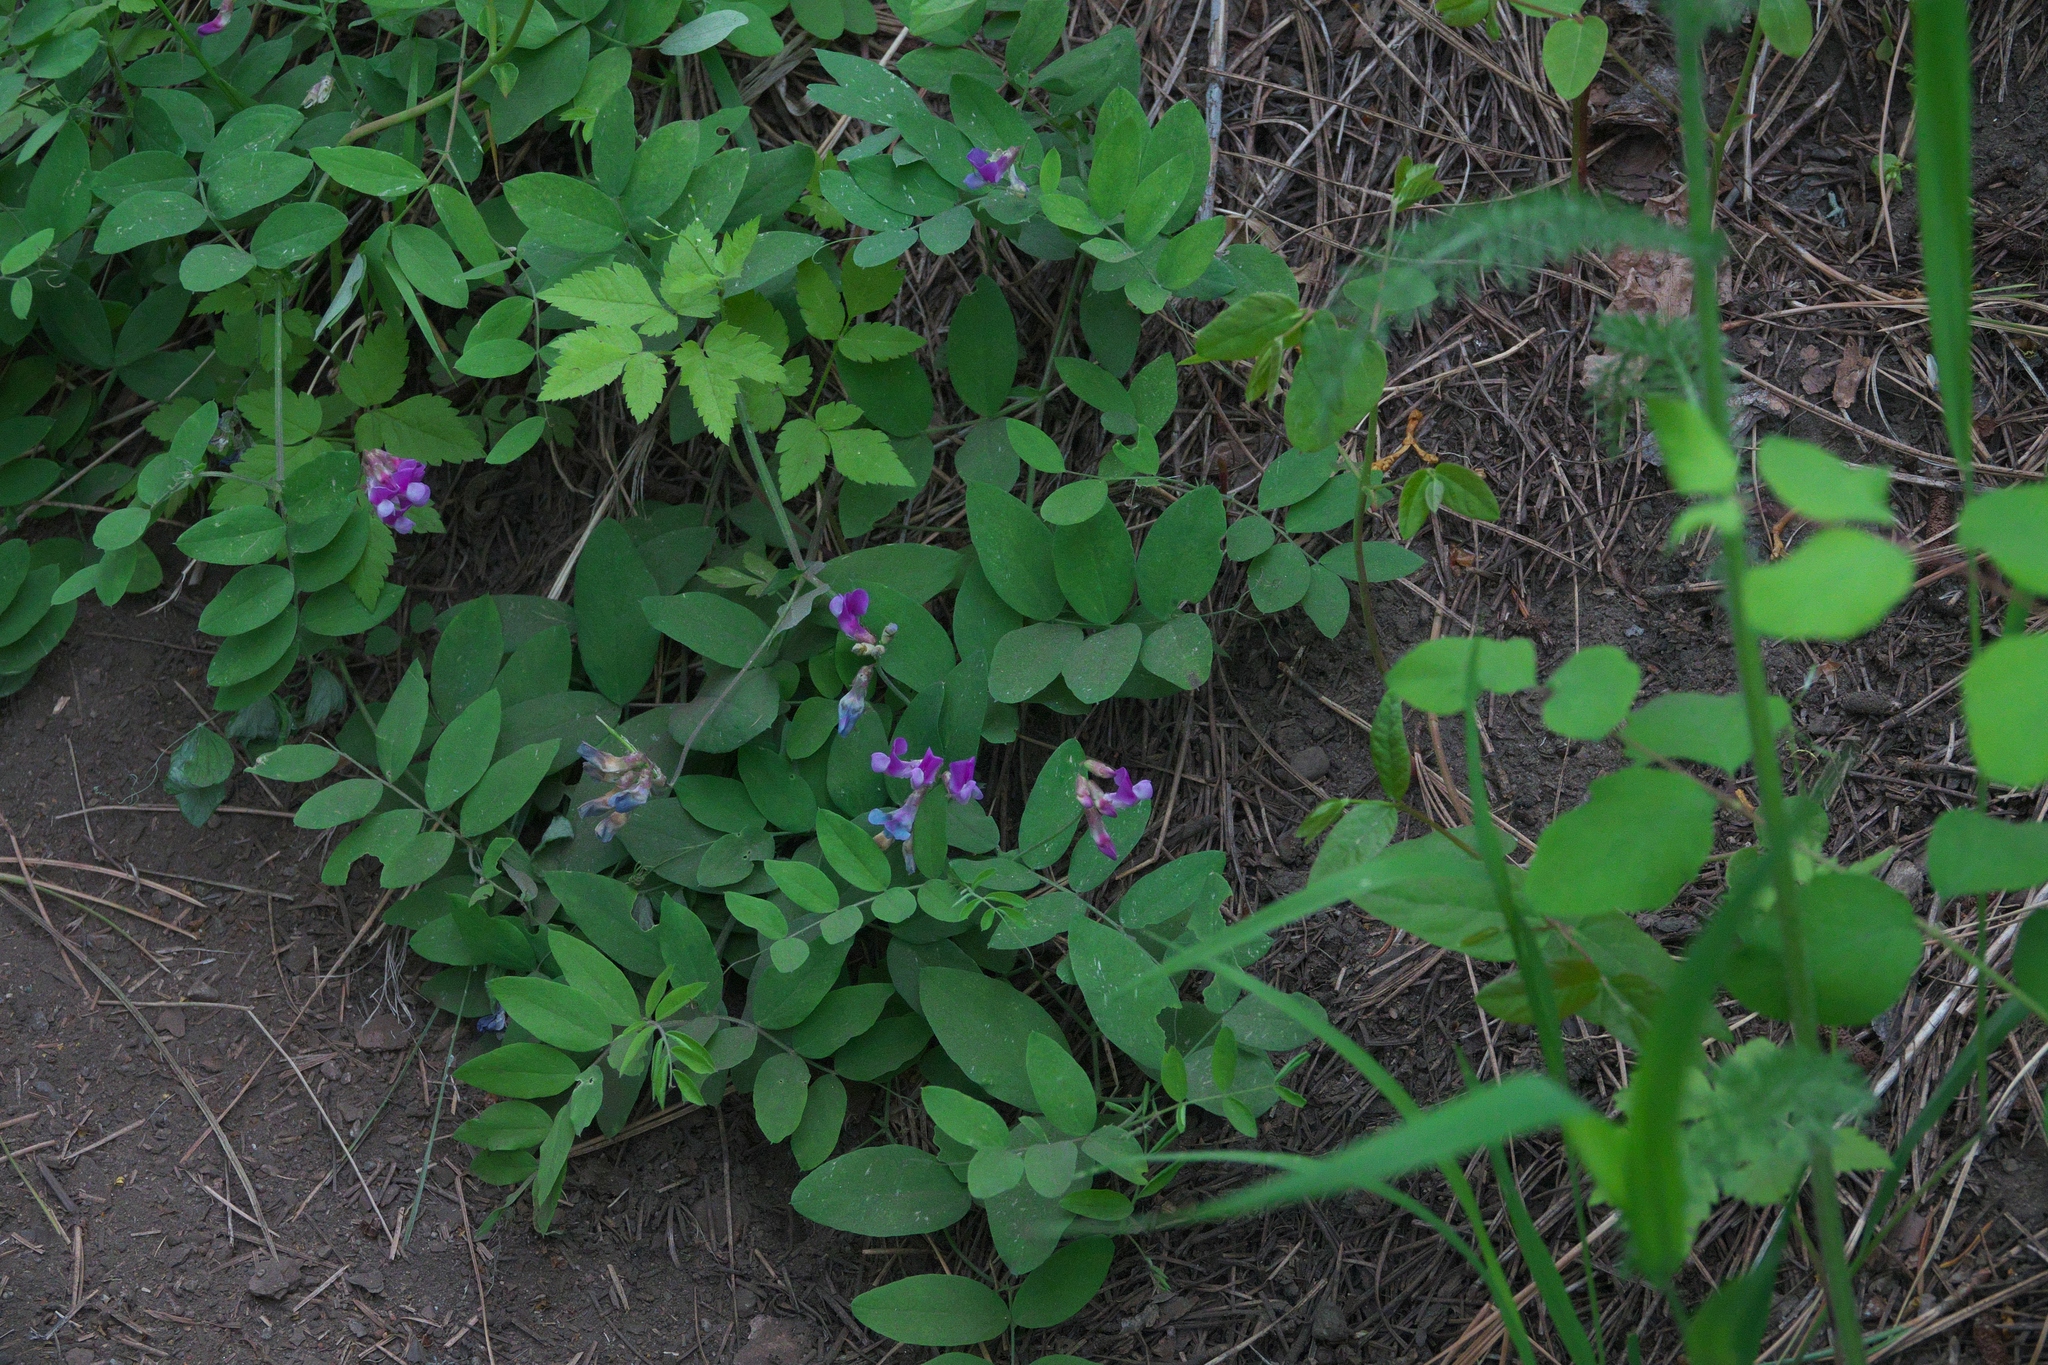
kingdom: Plantae
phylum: Tracheophyta
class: Magnoliopsida
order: Fabales
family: Fabaceae
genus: Vicia
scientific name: Vicia americana
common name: American vetch
